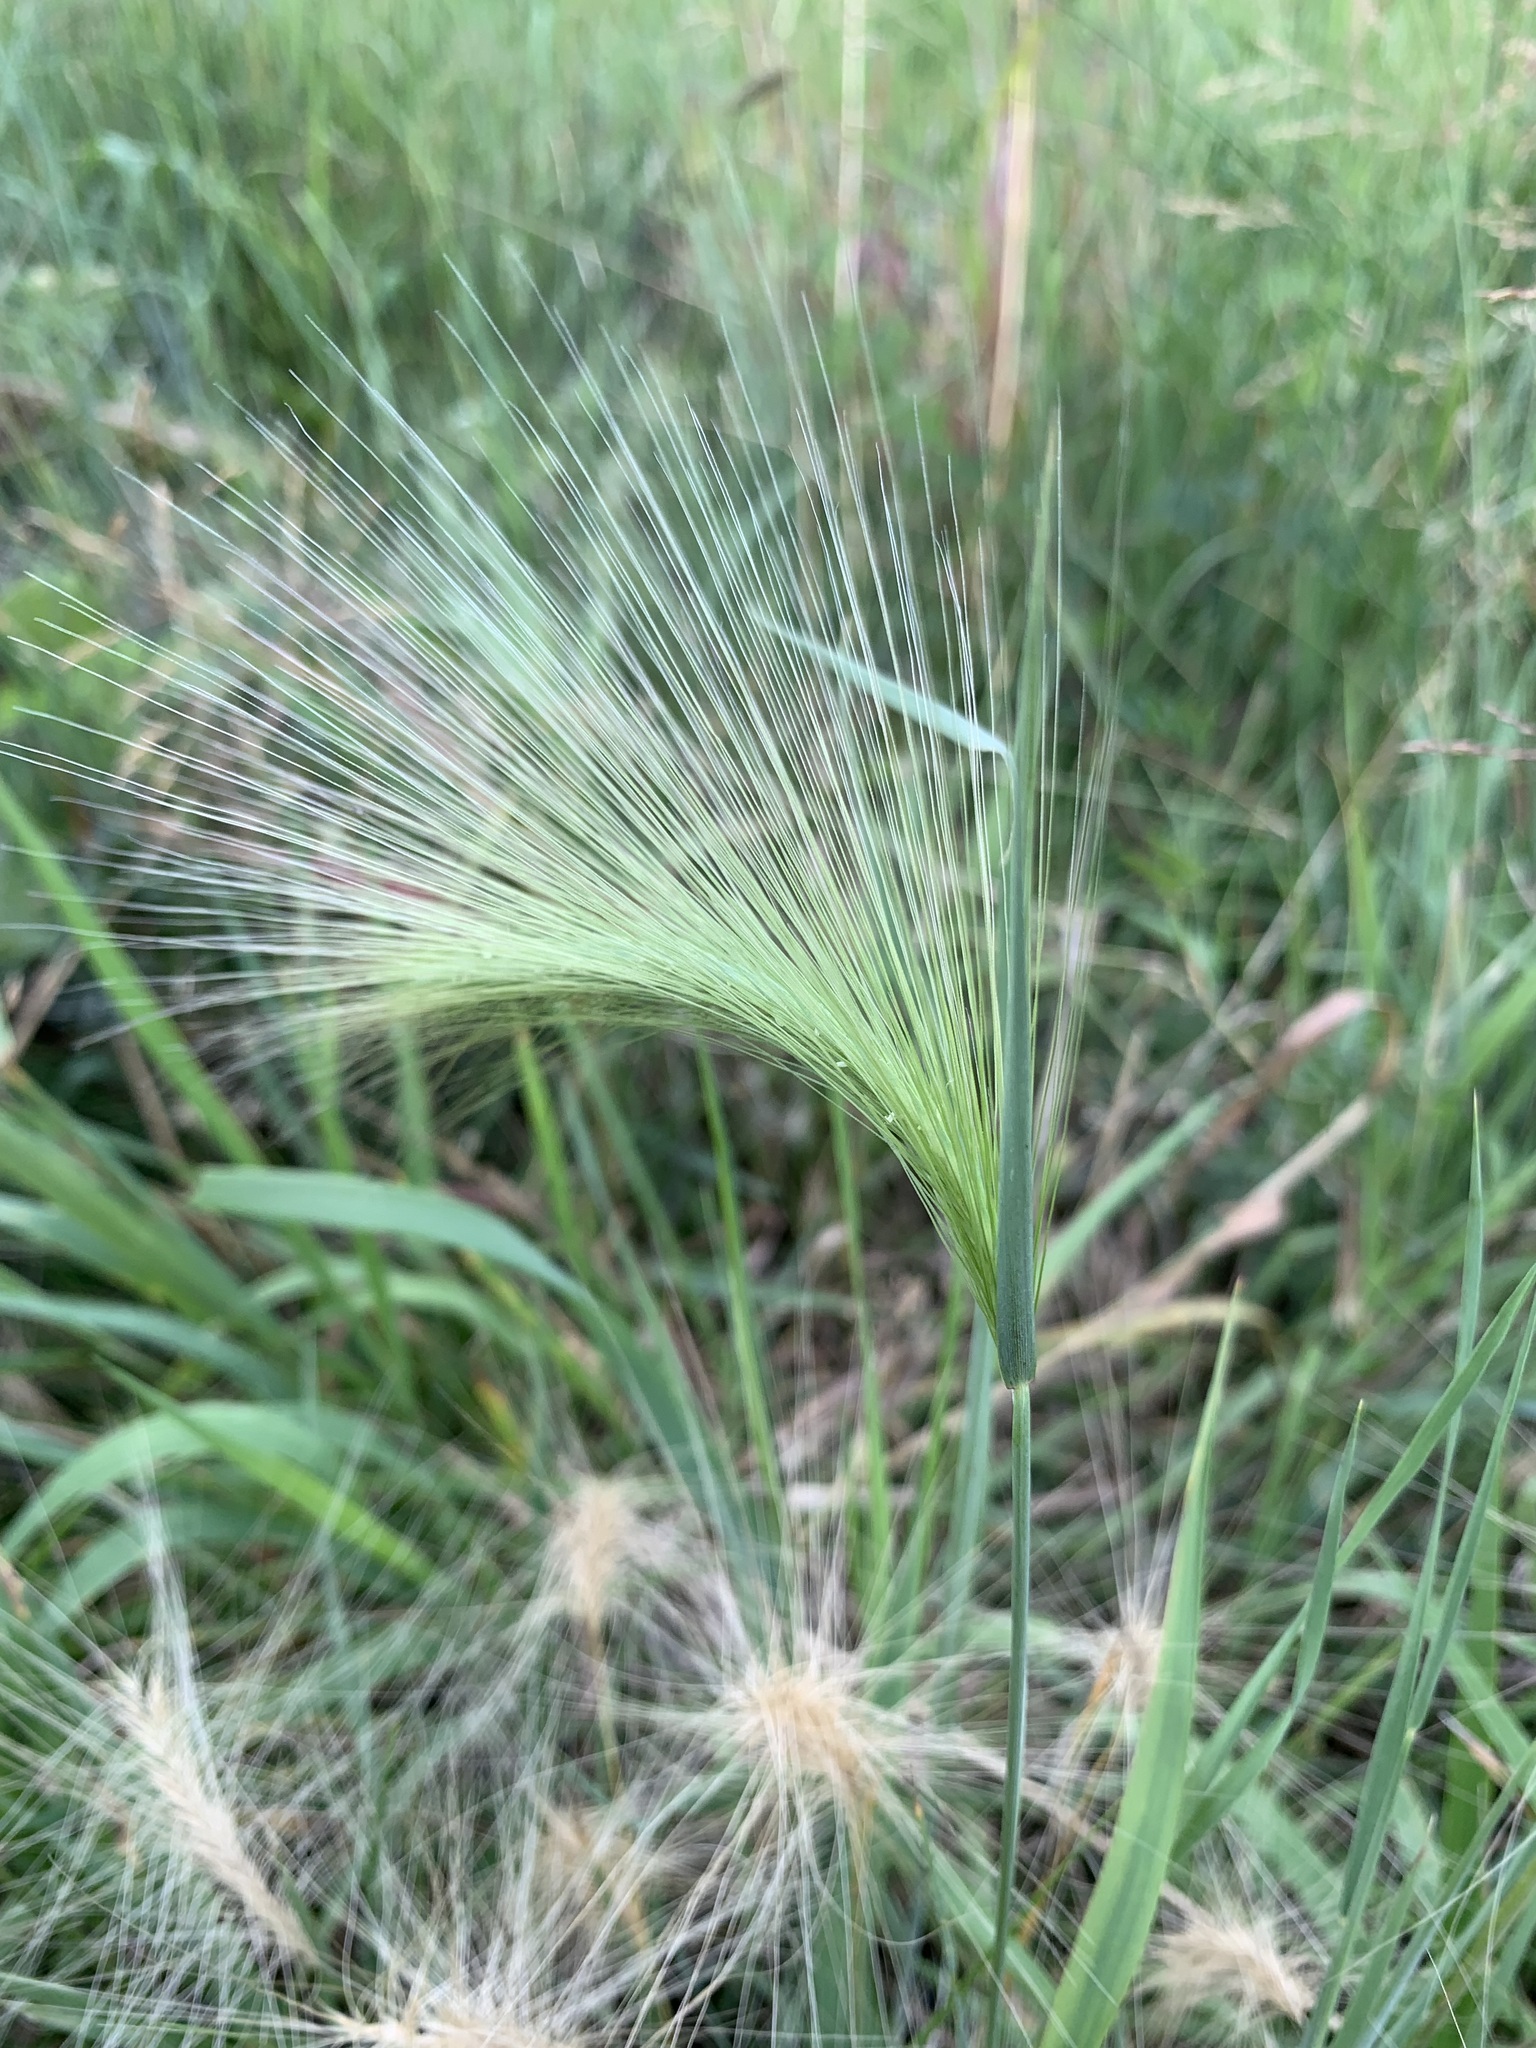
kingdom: Plantae
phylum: Tracheophyta
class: Liliopsida
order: Poales
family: Poaceae
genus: Hordeum
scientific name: Hordeum jubatum
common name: Foxtail barley
